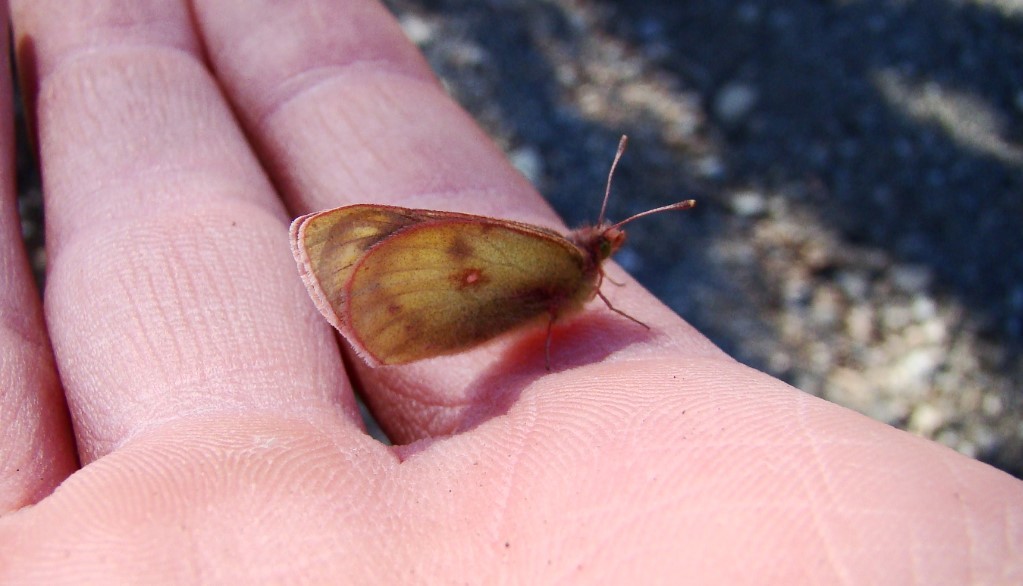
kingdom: Animalia
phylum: Arthropoda
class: Insecta
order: Lepidoptera
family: Pieridae
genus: Colias
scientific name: Colias vauthierii
